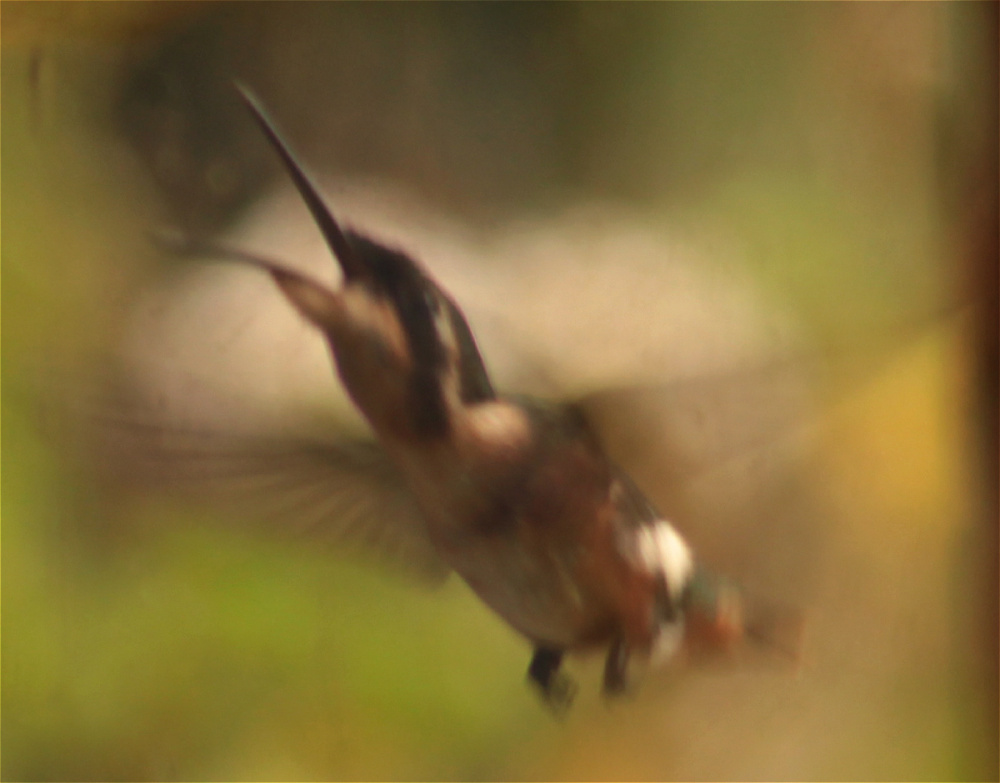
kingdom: Animalia
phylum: Chordata
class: Aves
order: Apodiformes
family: Trochilidae
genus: Chaetocercus
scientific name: Chaetocercus mulsant
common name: White-bellied woodstar
